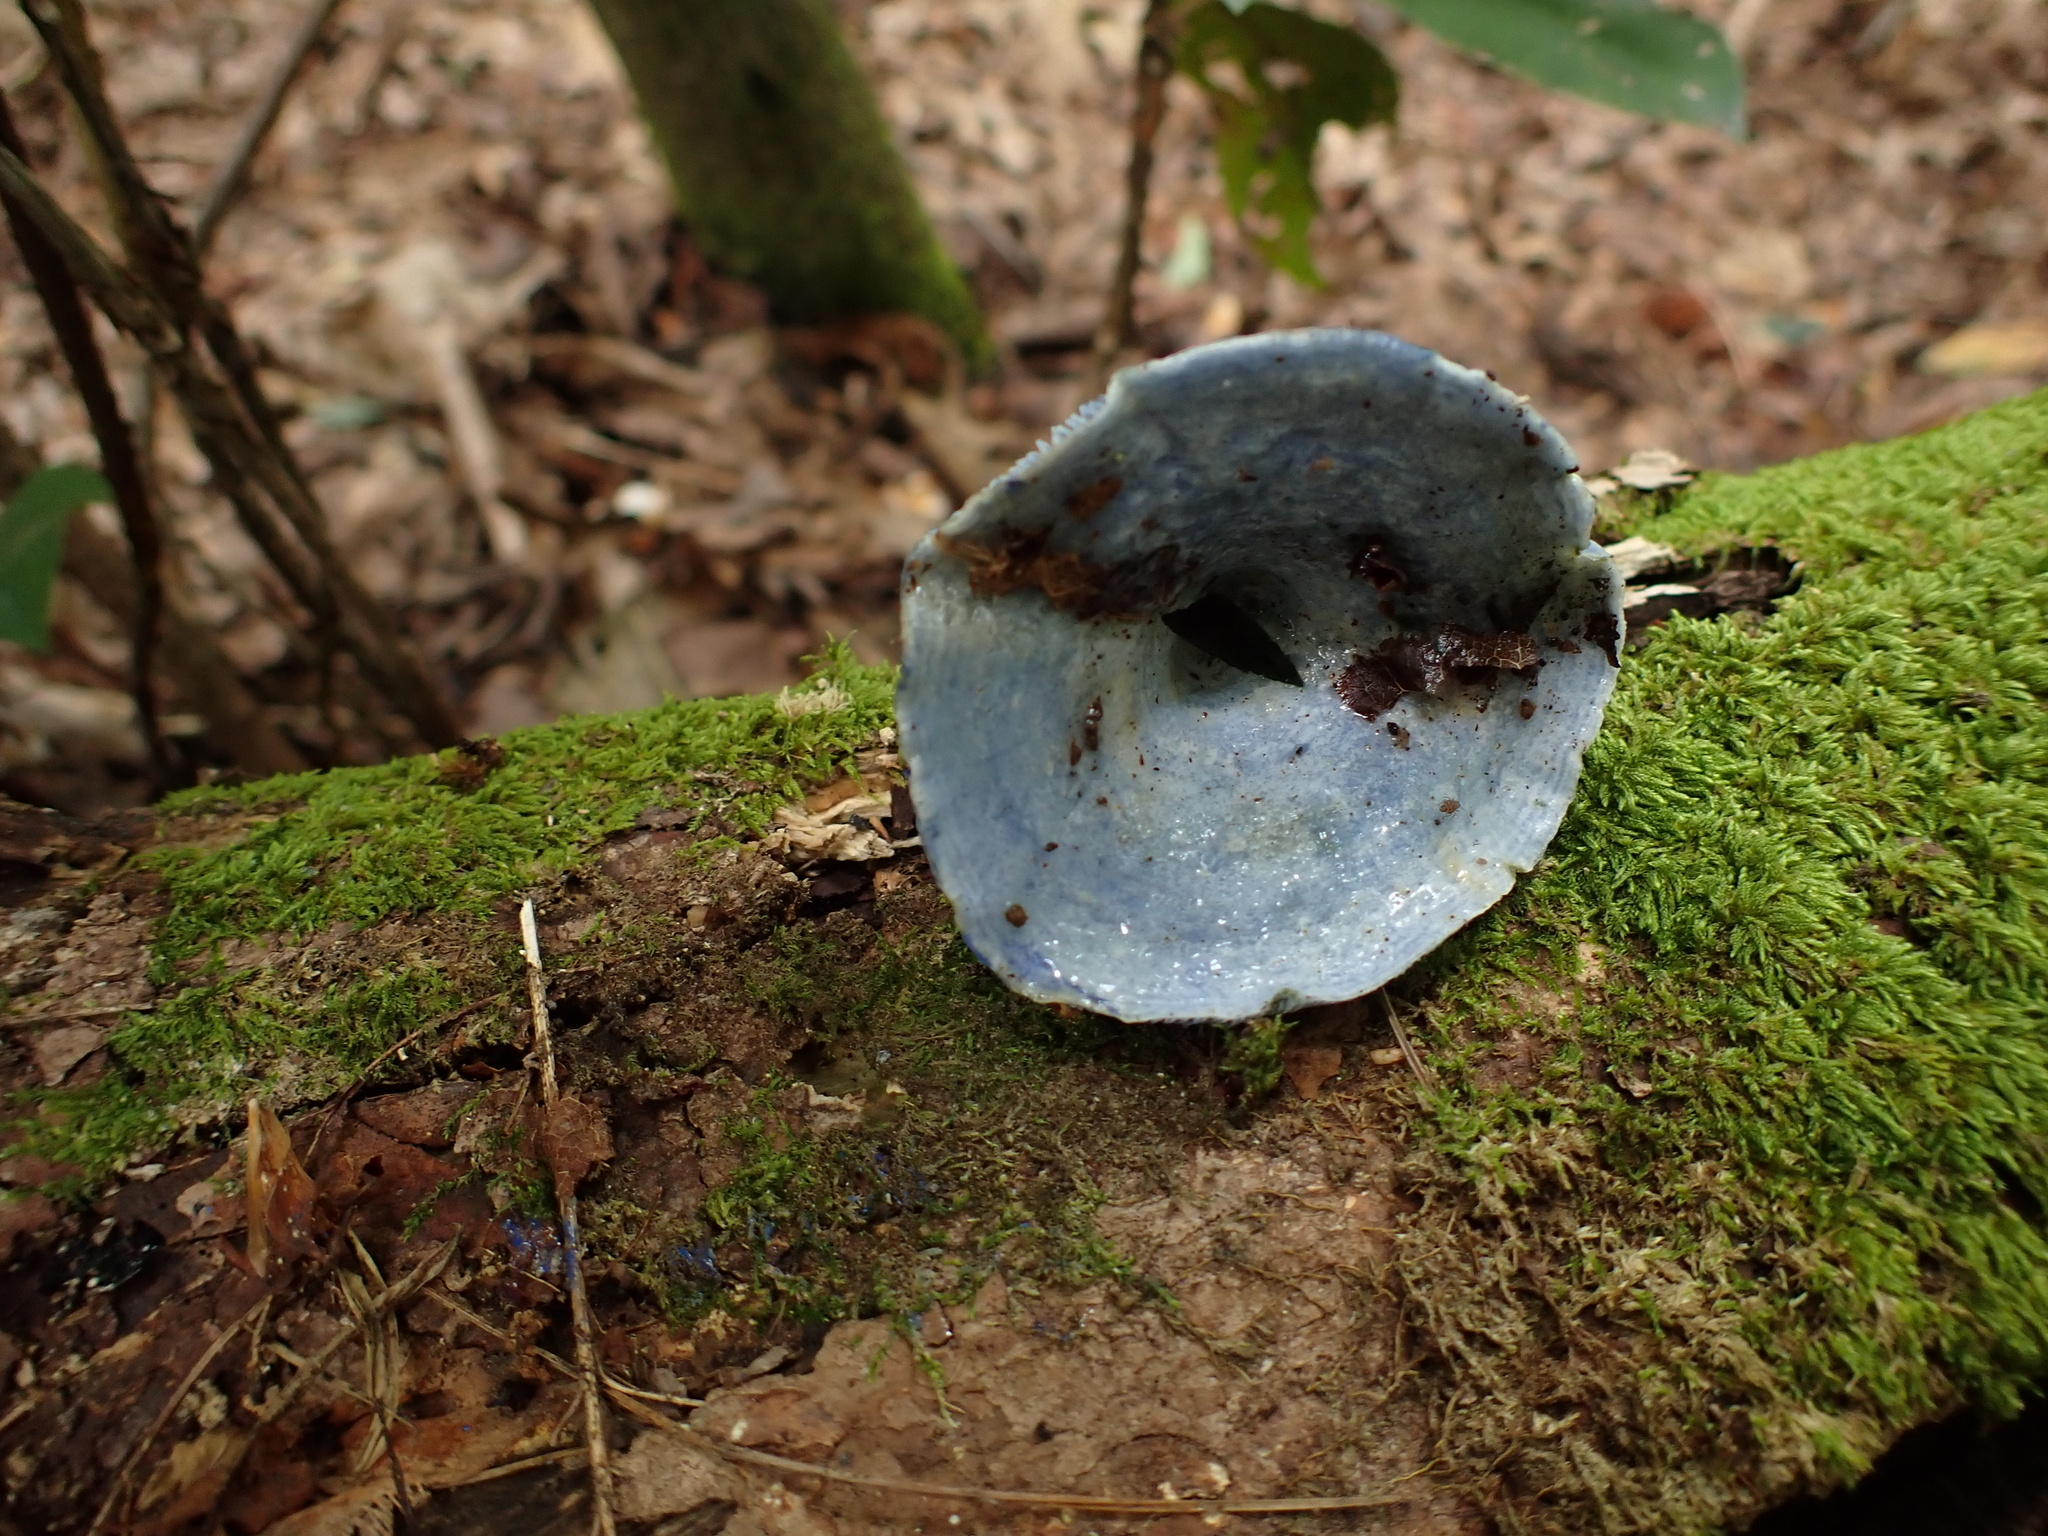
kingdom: Fungi
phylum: Basidiomycota
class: Agaricomycetes
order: Russulales
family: Russulaceae
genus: Lactarius
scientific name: Lactarius indigo
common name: Indigo milk cap
